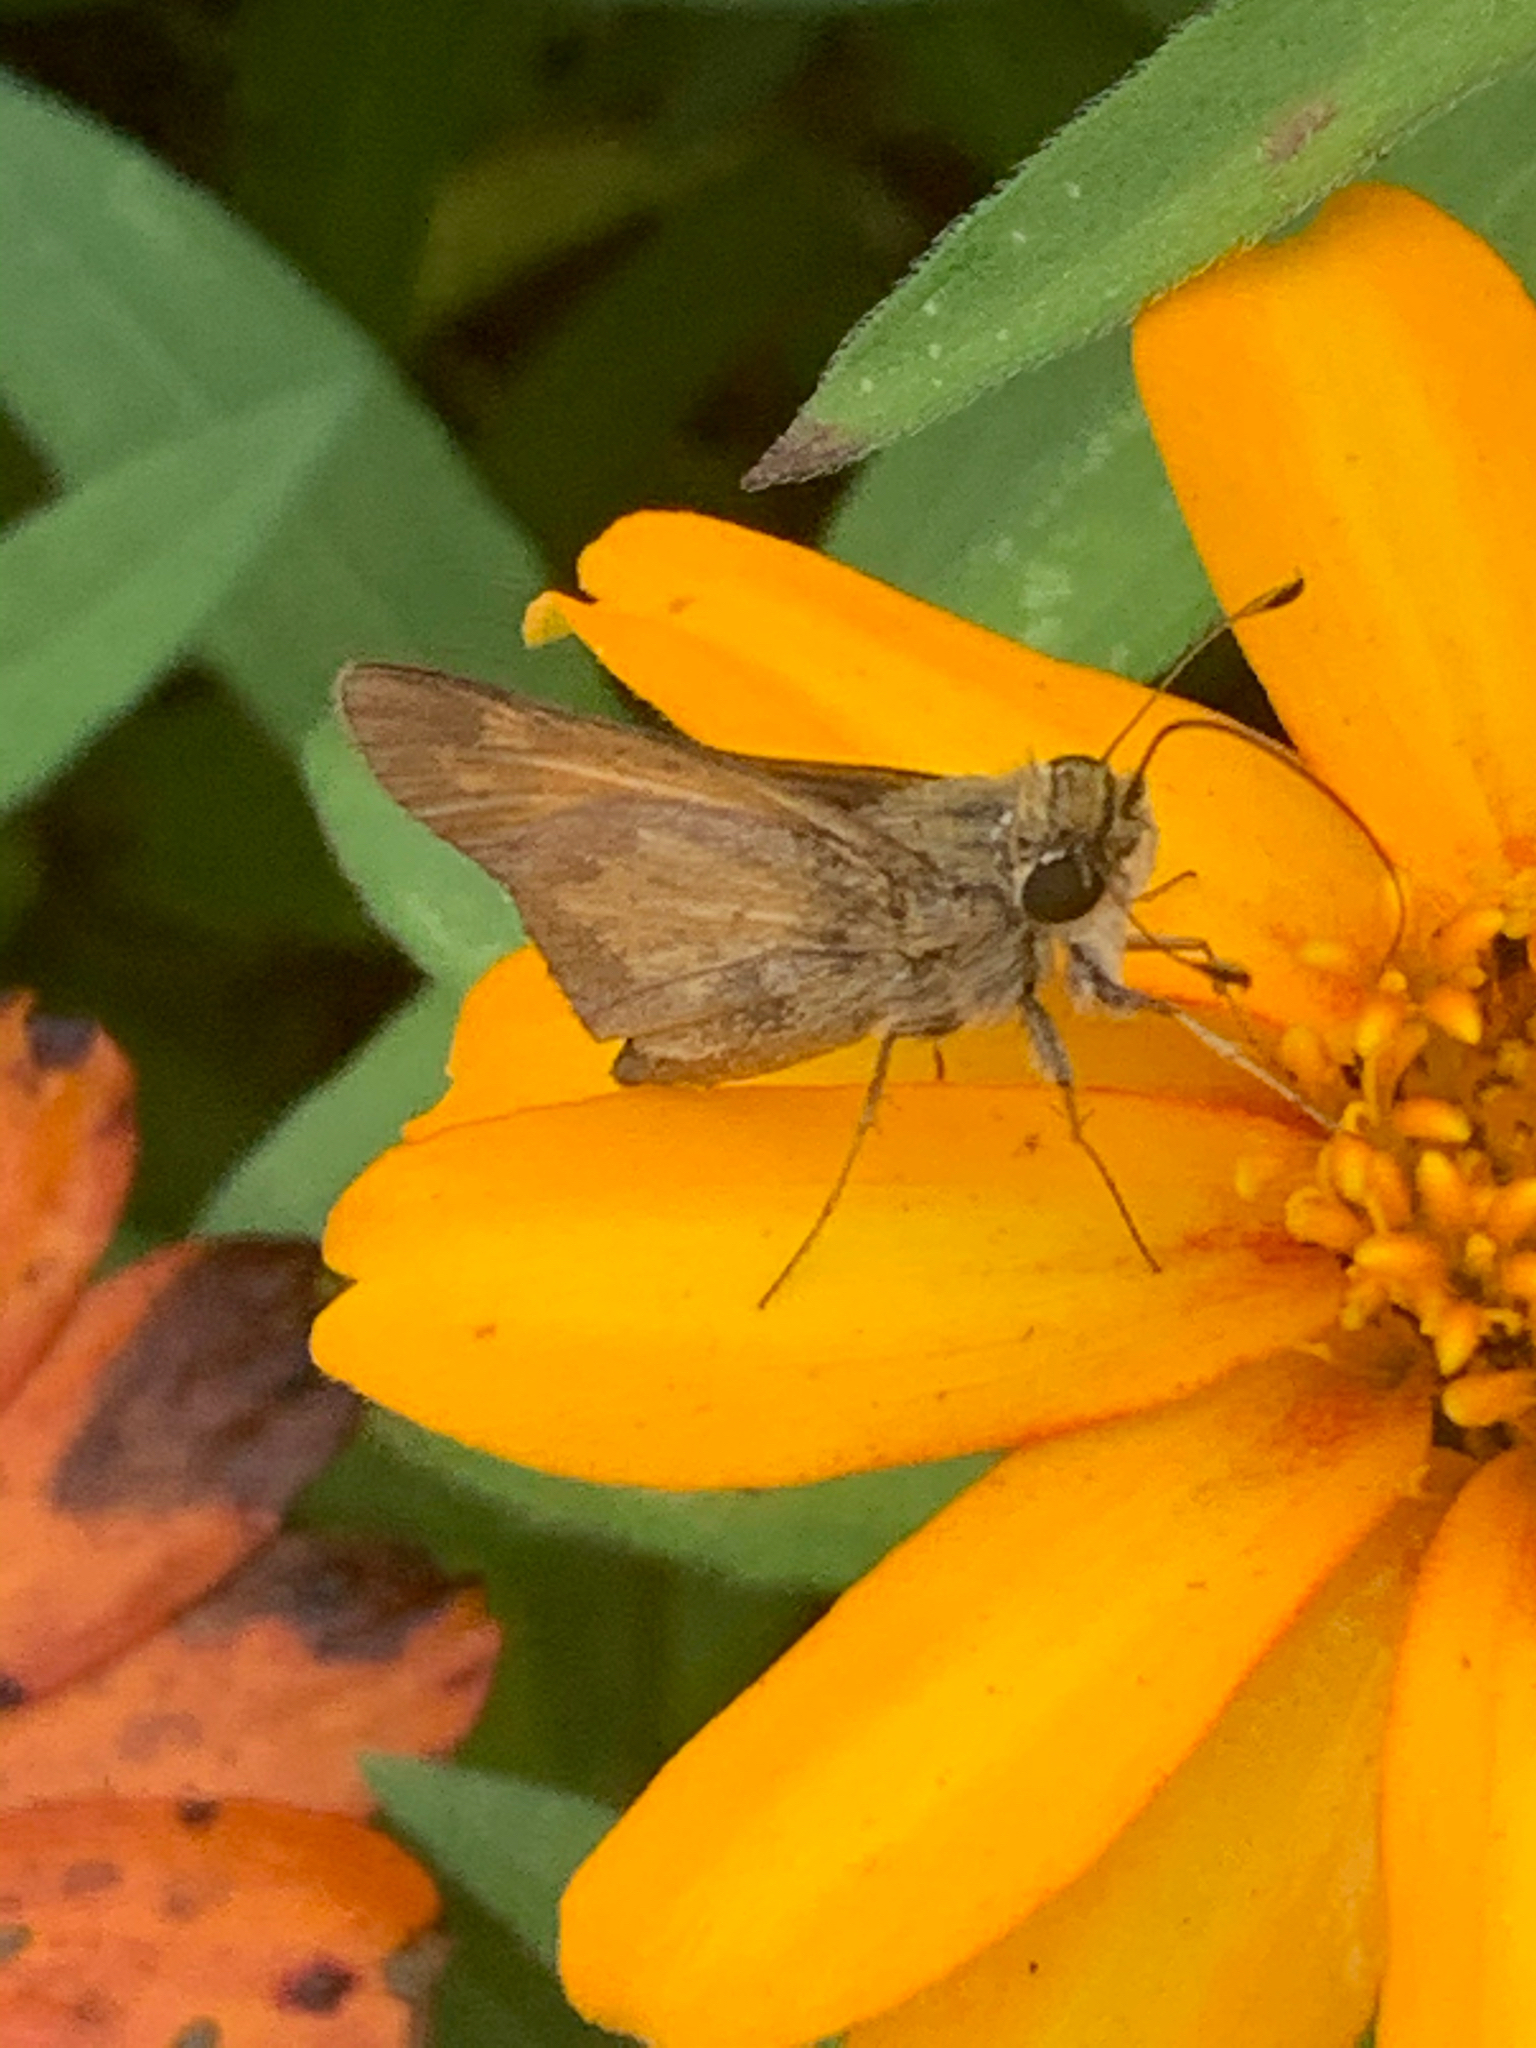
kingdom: Animalia
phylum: Arthropoda
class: Insecta
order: Lepidoptera
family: Hesperiidae
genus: Atalopedes
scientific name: Atalopedes
